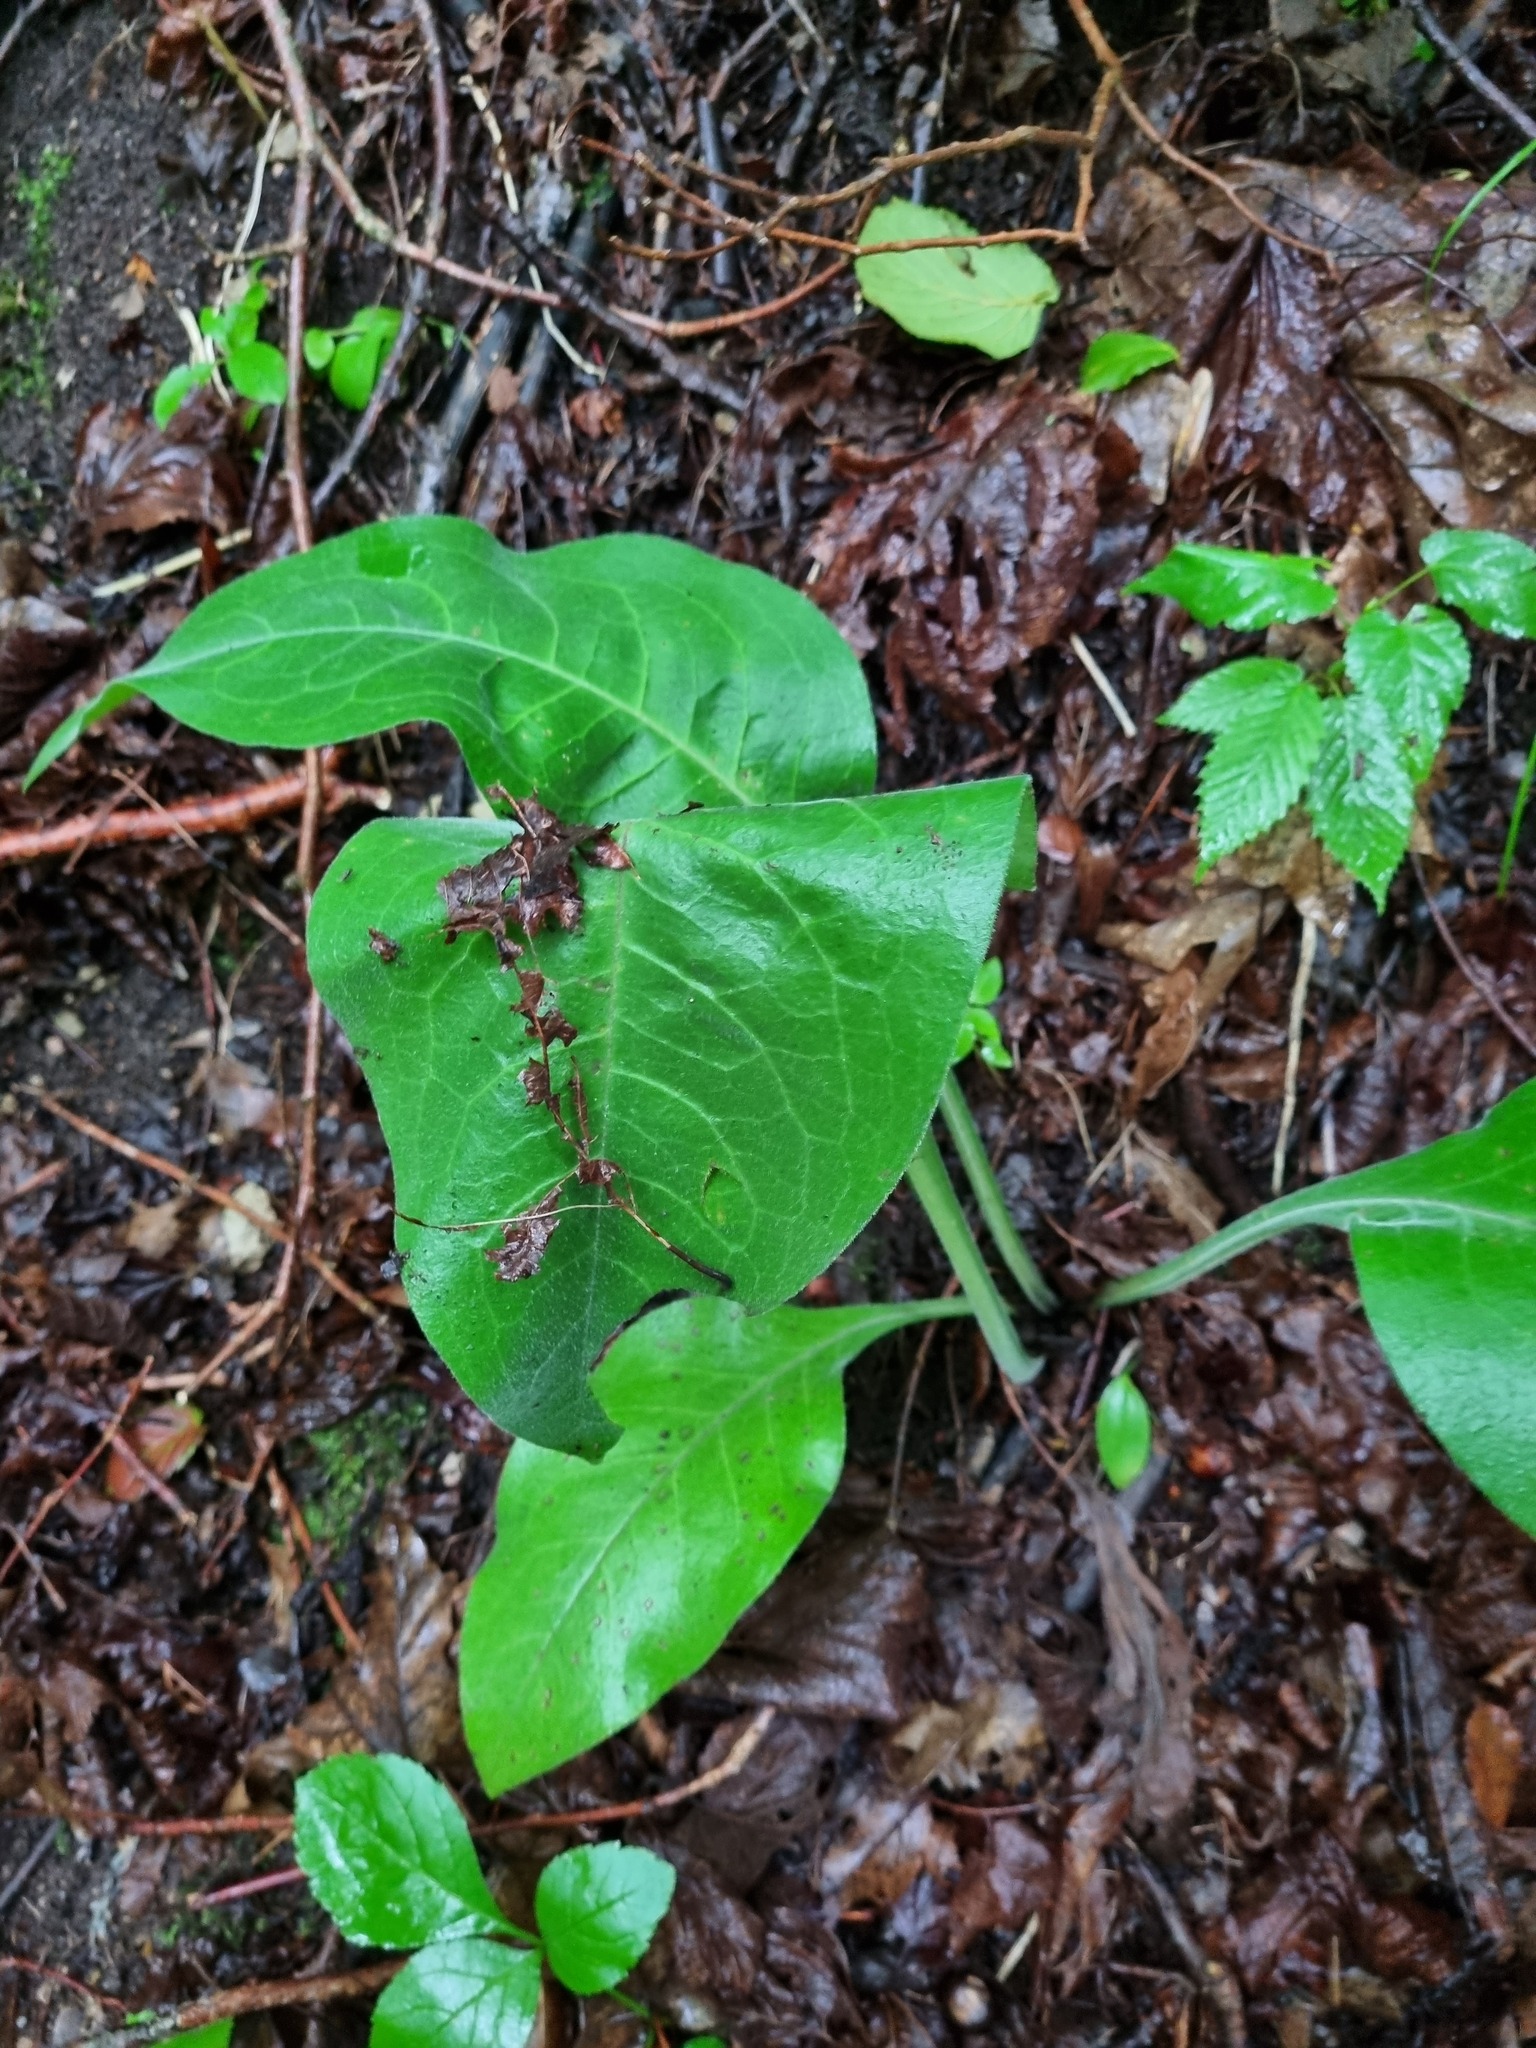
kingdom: Plantae
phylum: Tracheophyta
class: Magnoliopsida
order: Boraginales
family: Boraginaceae
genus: Pulmonaria
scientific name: Pulmonaria mollis
